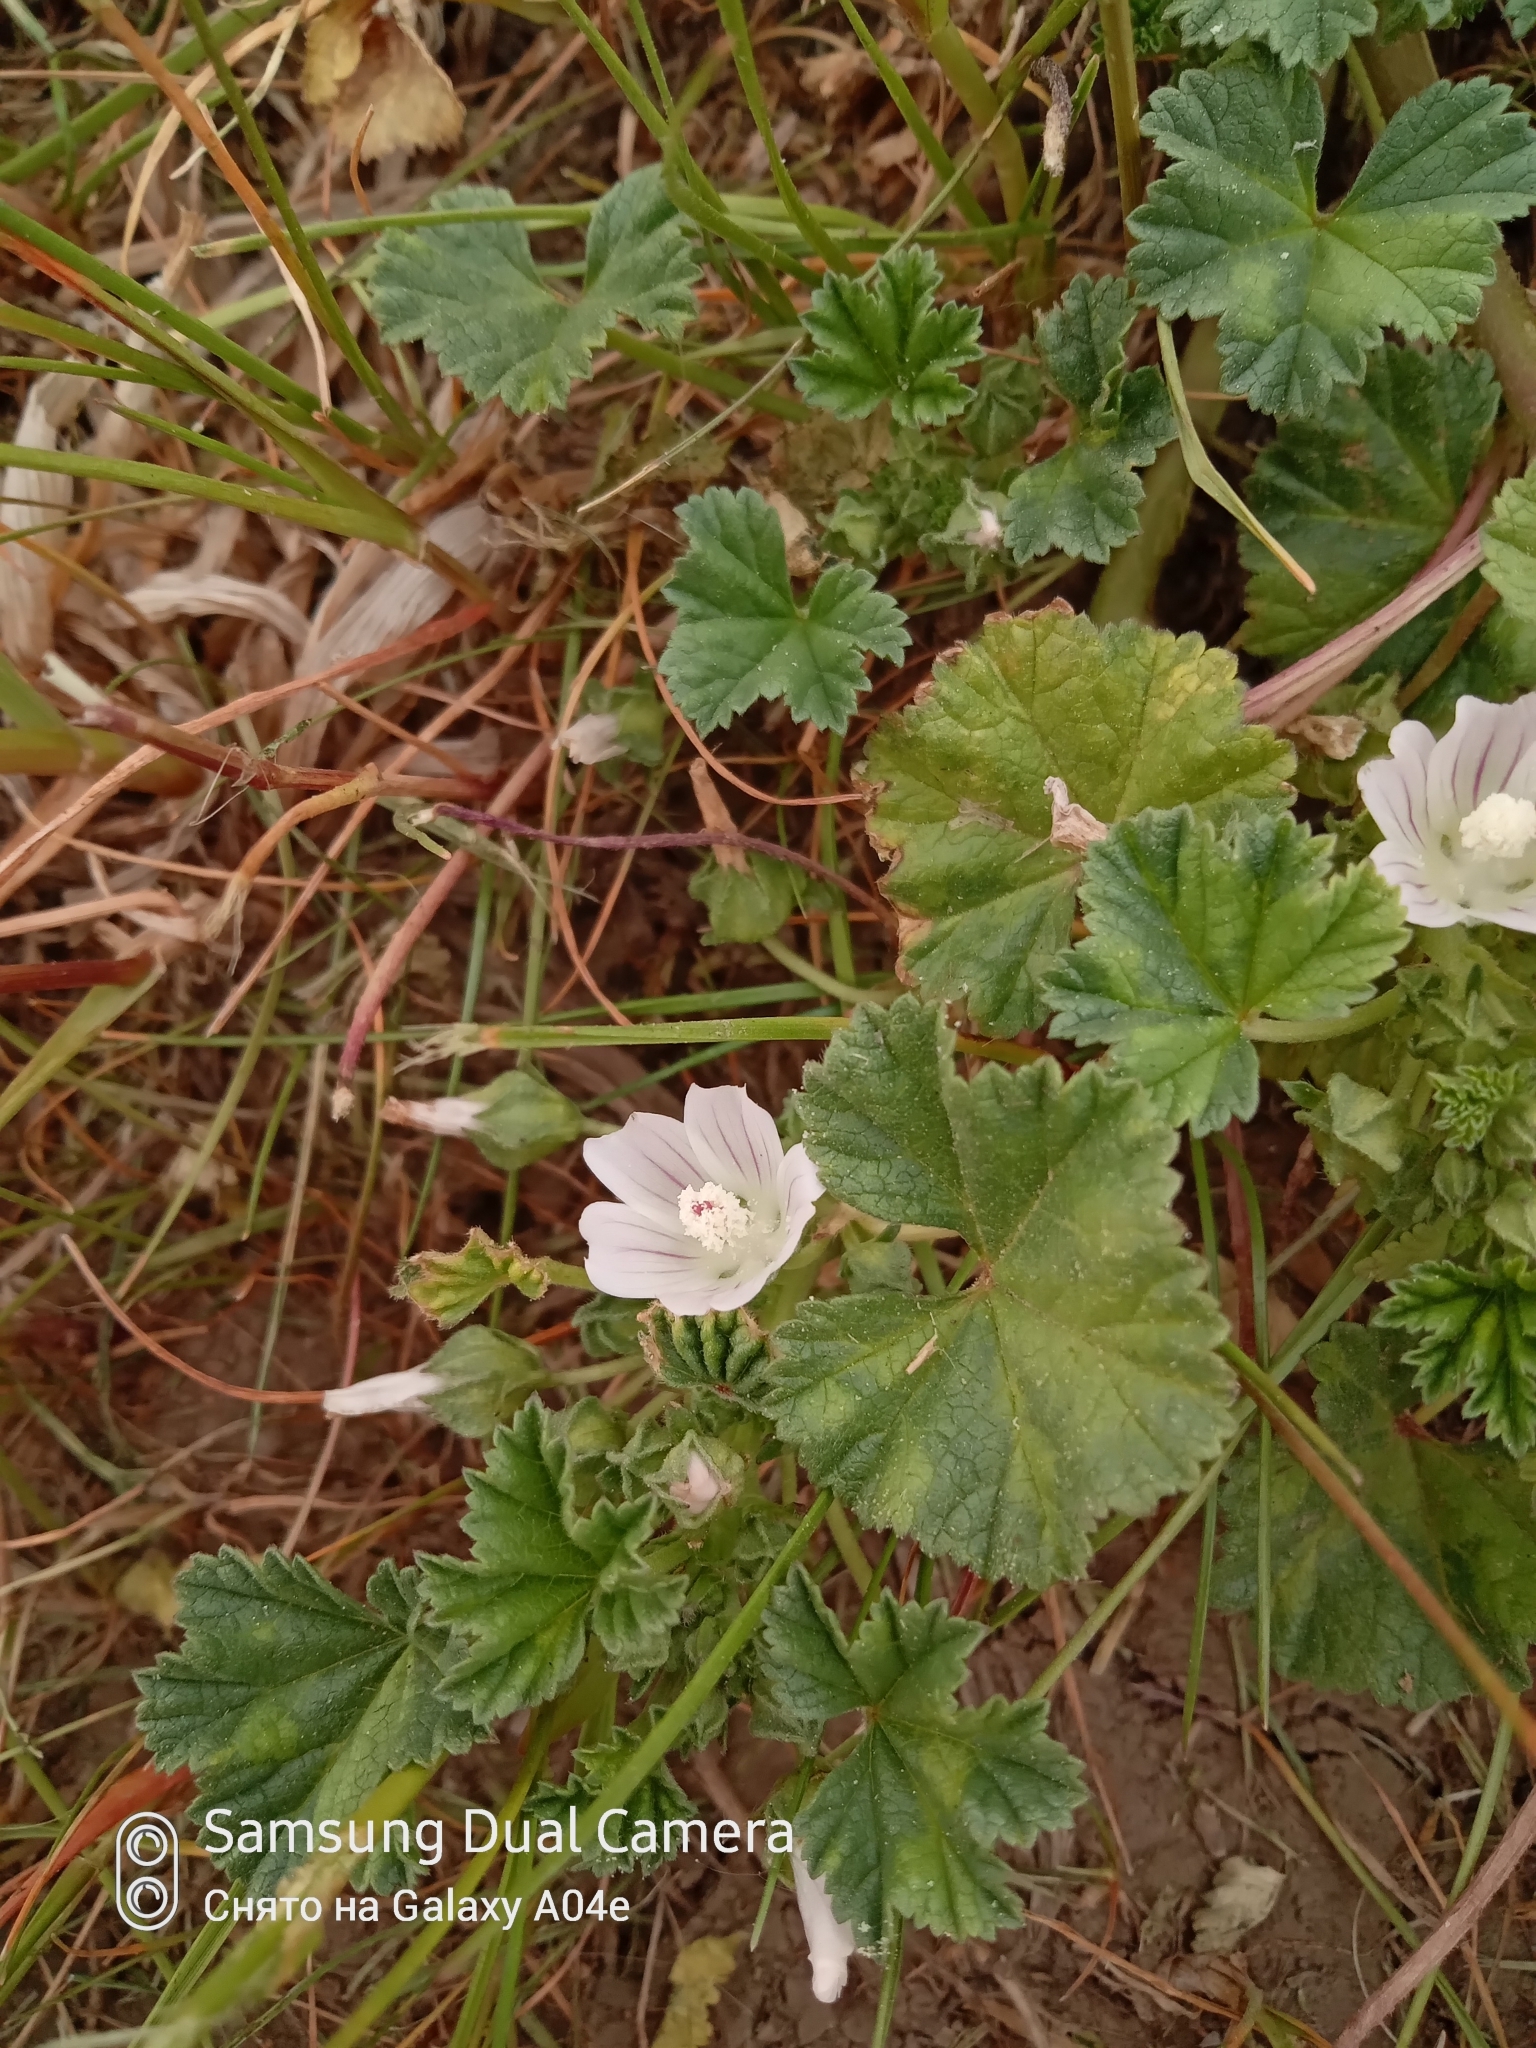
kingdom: Plantae
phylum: Tracheophyta
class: Magnoliopsida
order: Malvales
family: Malvaceae
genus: Malva
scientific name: Malva neglecta
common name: Common mallow
